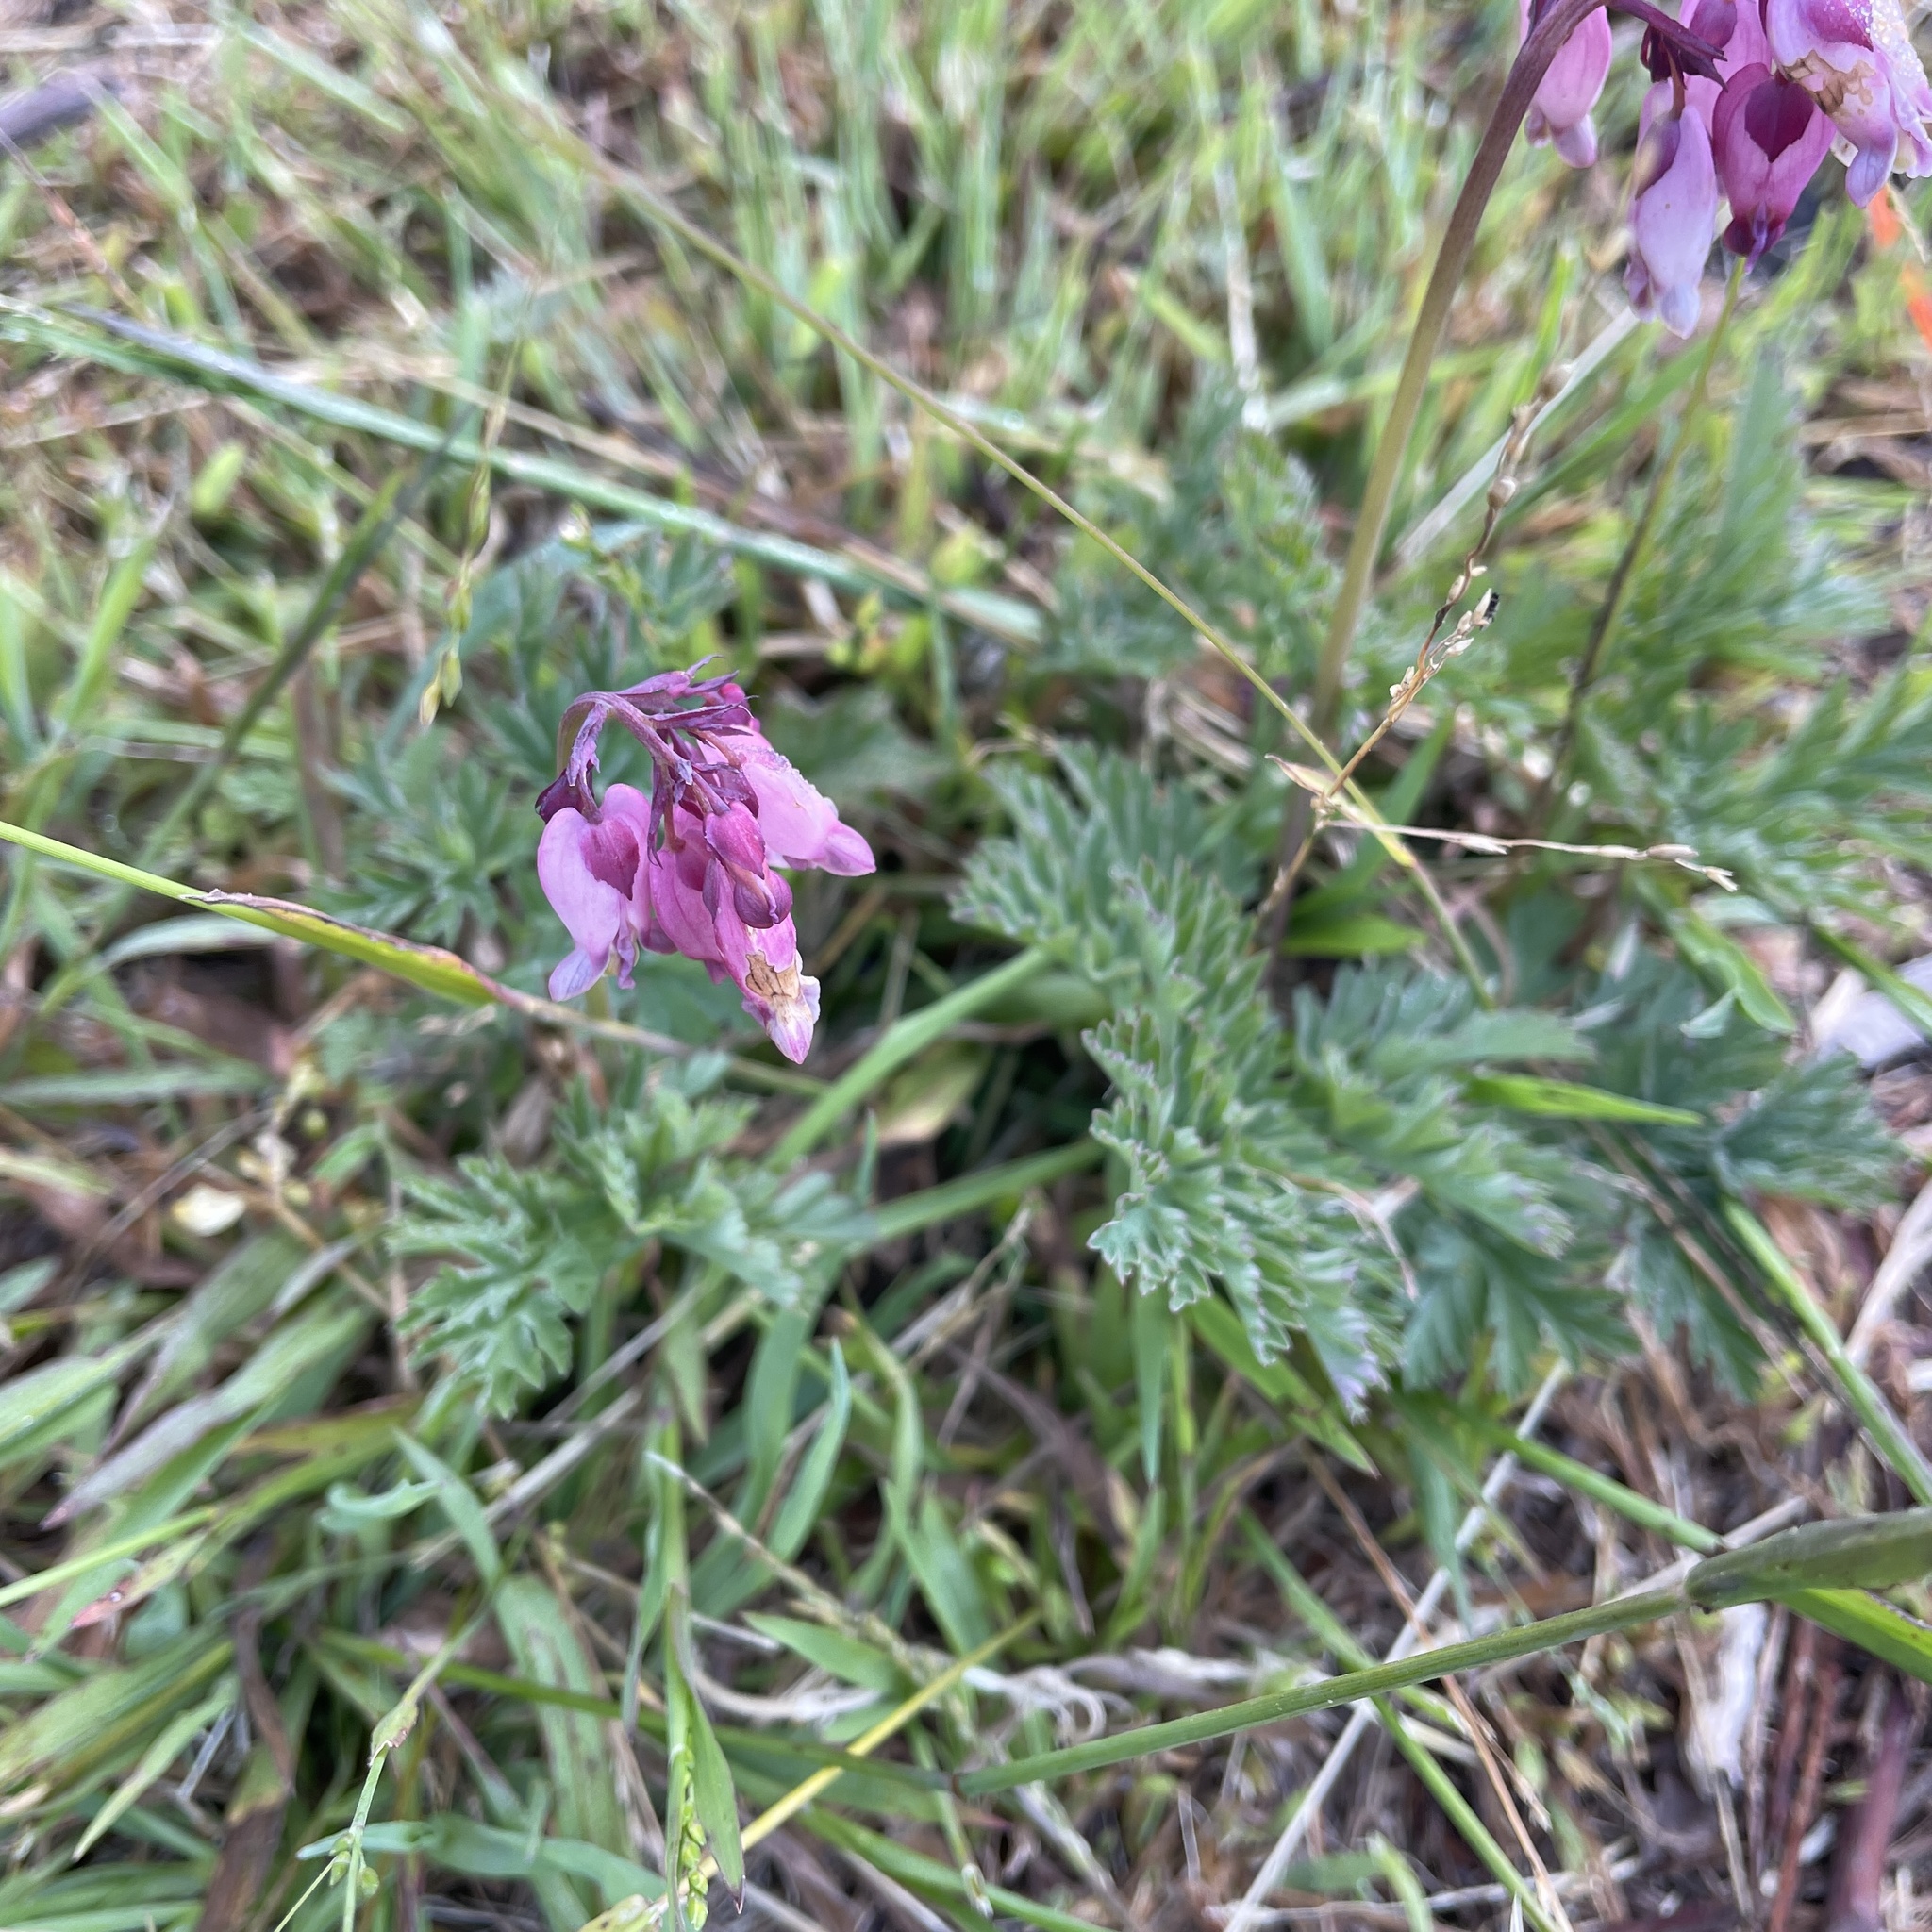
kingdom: Plantae
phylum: Tracheophyta
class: Magnoliopsida
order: Ranunculales
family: Papaveraceae
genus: Dicentra
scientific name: Dicentra formosa
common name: Bleeding-heart
